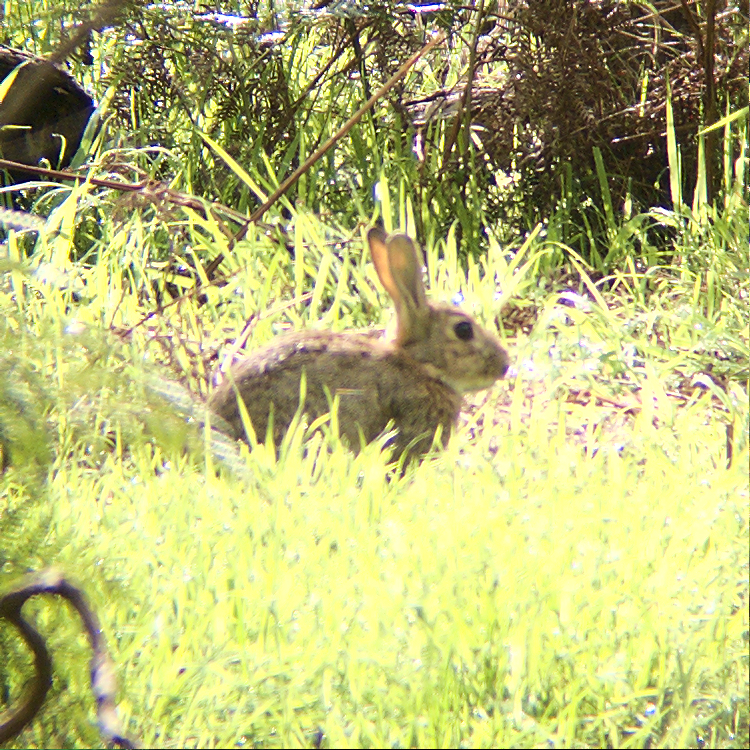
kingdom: Animalia
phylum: Chordata
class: Mammalia
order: Lagomorpha
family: Leporidae
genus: Oryctolagus
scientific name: Oryctolagus cuniculus
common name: European rabbit
